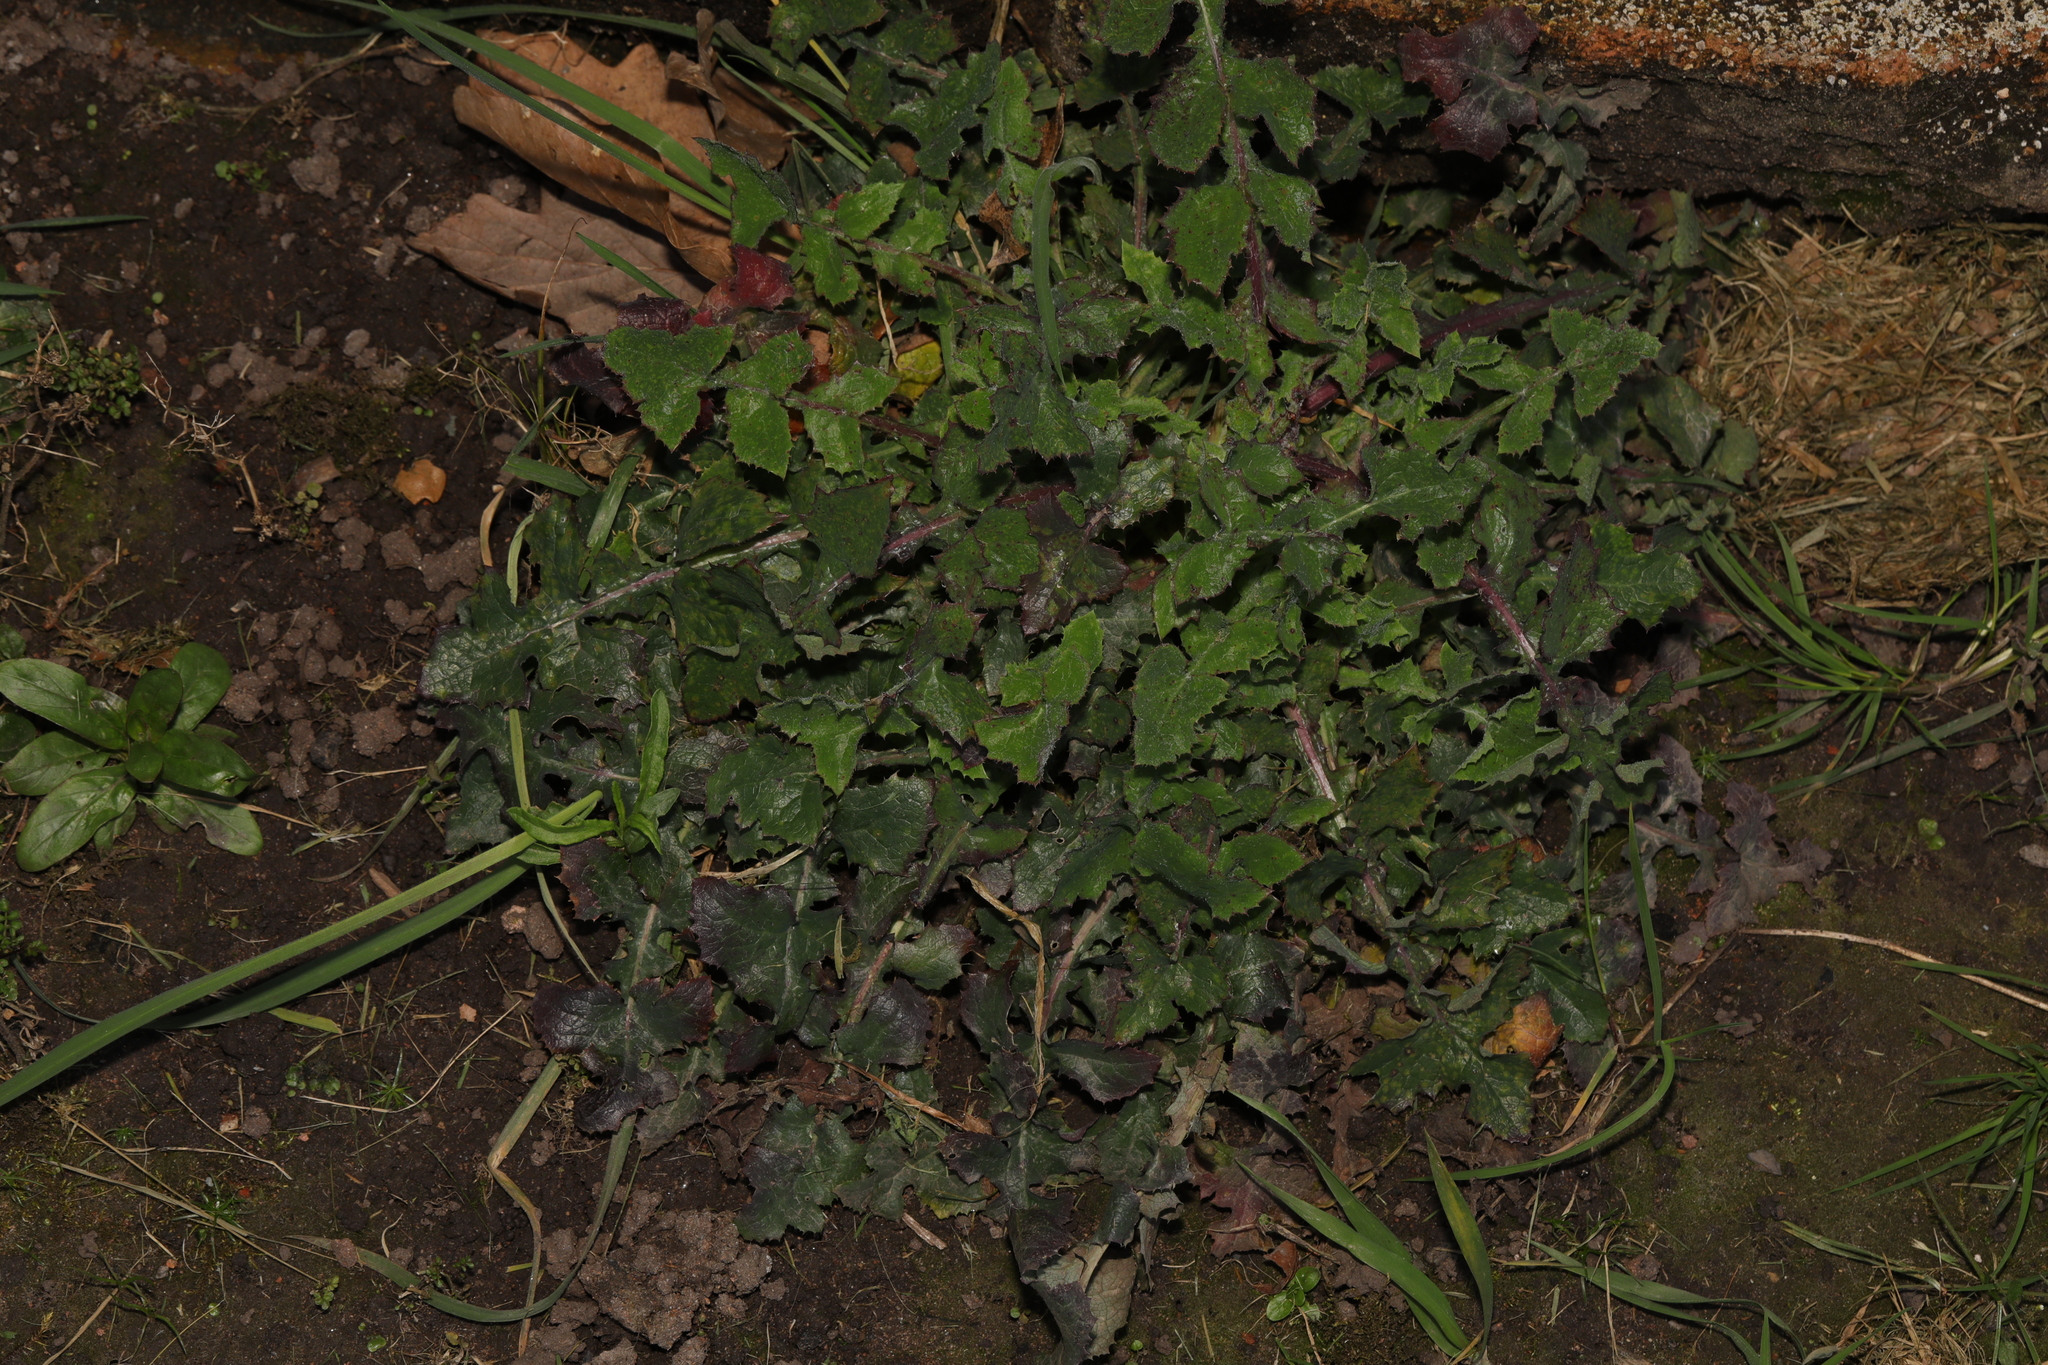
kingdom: Plantae
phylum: Tracheophyta
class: Magnoliopsida
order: Asterales
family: Asteraceae
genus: Sonchus
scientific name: Sonchus oleraceus
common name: Common sowthistle
